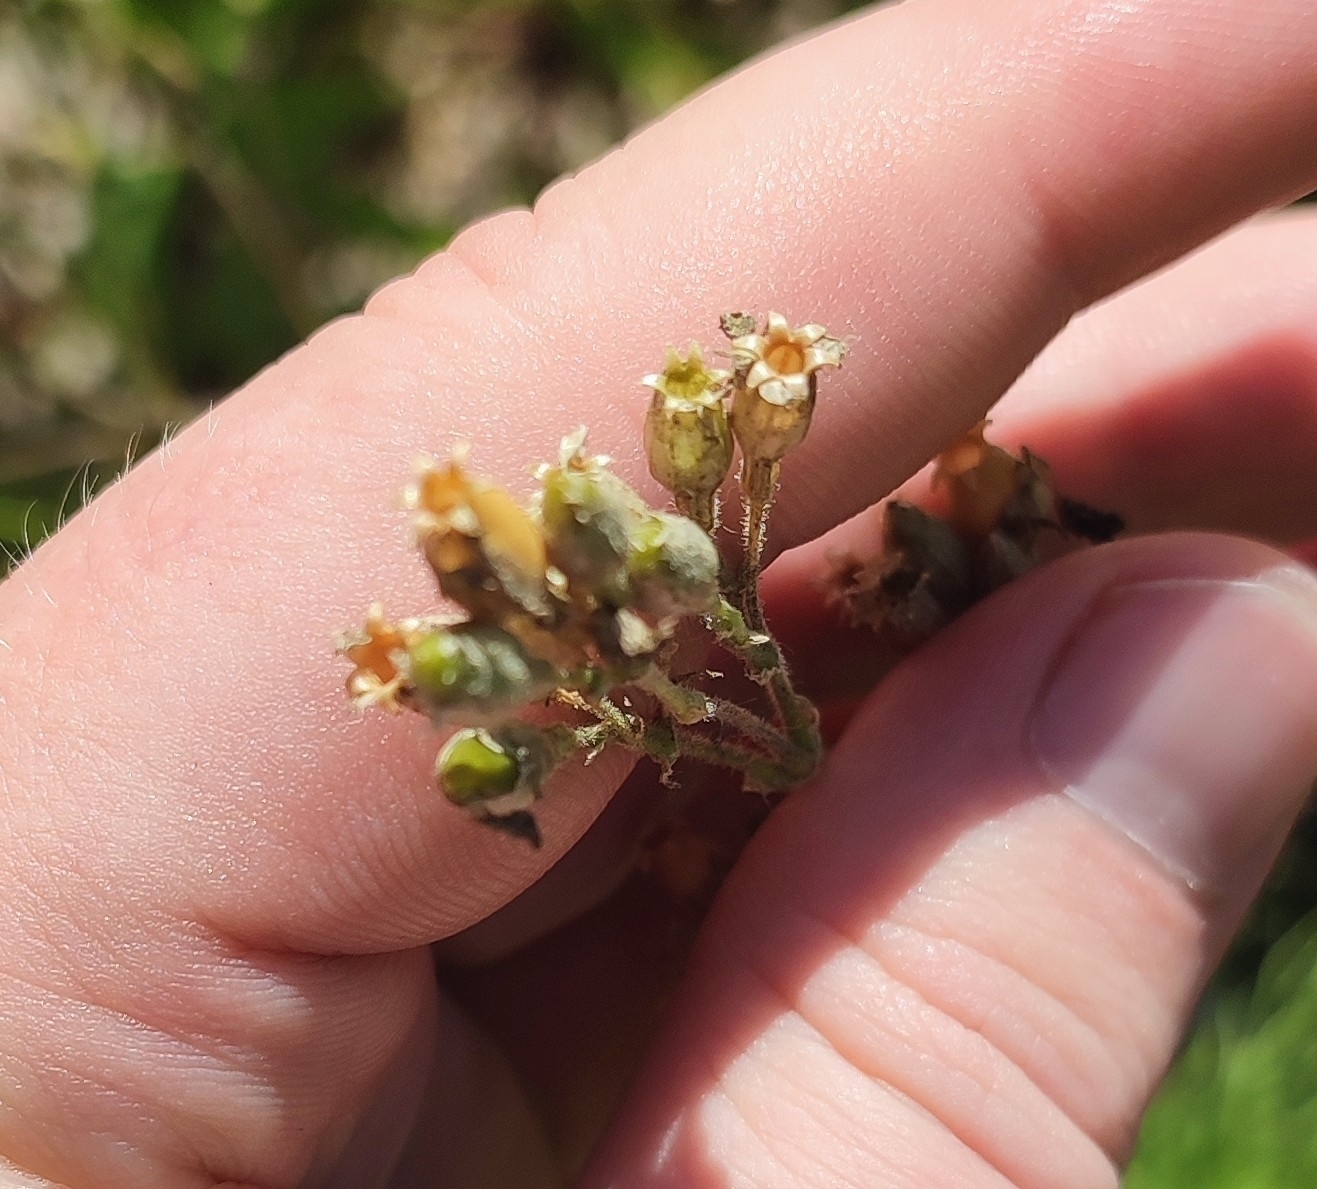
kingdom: Plantae
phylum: Tracheophyta
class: Magnoliopsida
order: Caryophyllales
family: Caryophyllaceae
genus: Silene
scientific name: Silene nutans
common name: Nottingham catchfly
